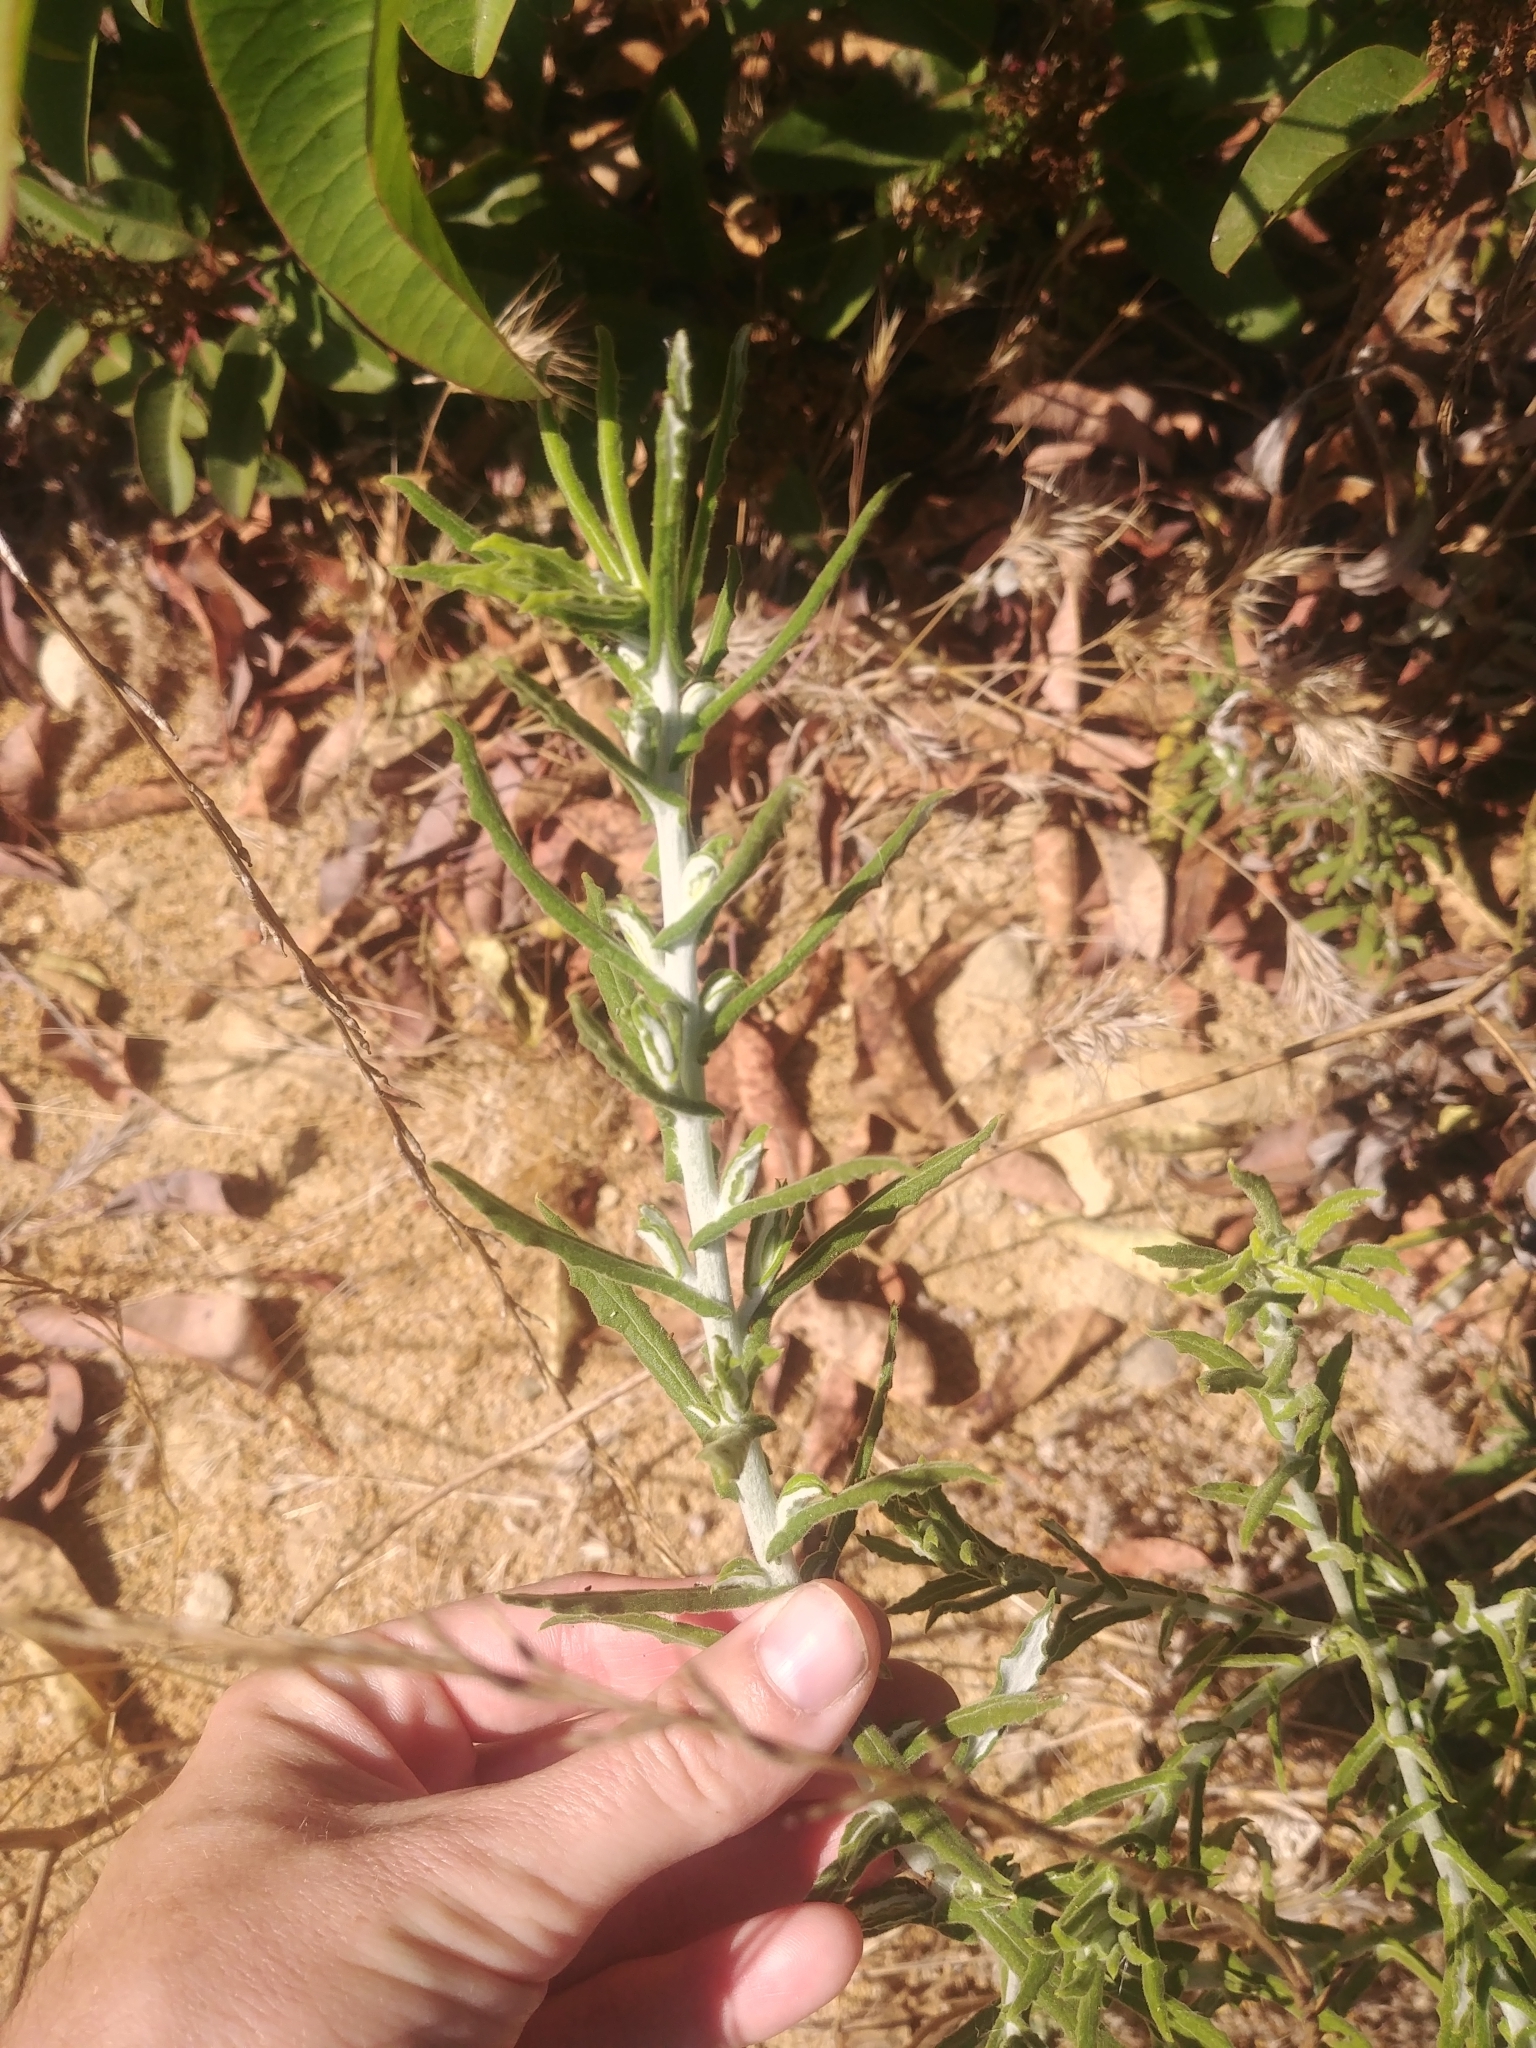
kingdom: Plantae
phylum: Tracheophyta
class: Magnoliopsida
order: Asterales
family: Asteraceae
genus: Pseudognaphalium
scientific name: Pseudognaphalium biolettii
